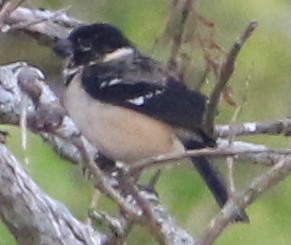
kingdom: Animalia
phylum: Chordata
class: Aves
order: Passeriformes
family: Thraupidae
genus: Sporophila
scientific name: Sporophila morelleti
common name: Morelet's seedeater
